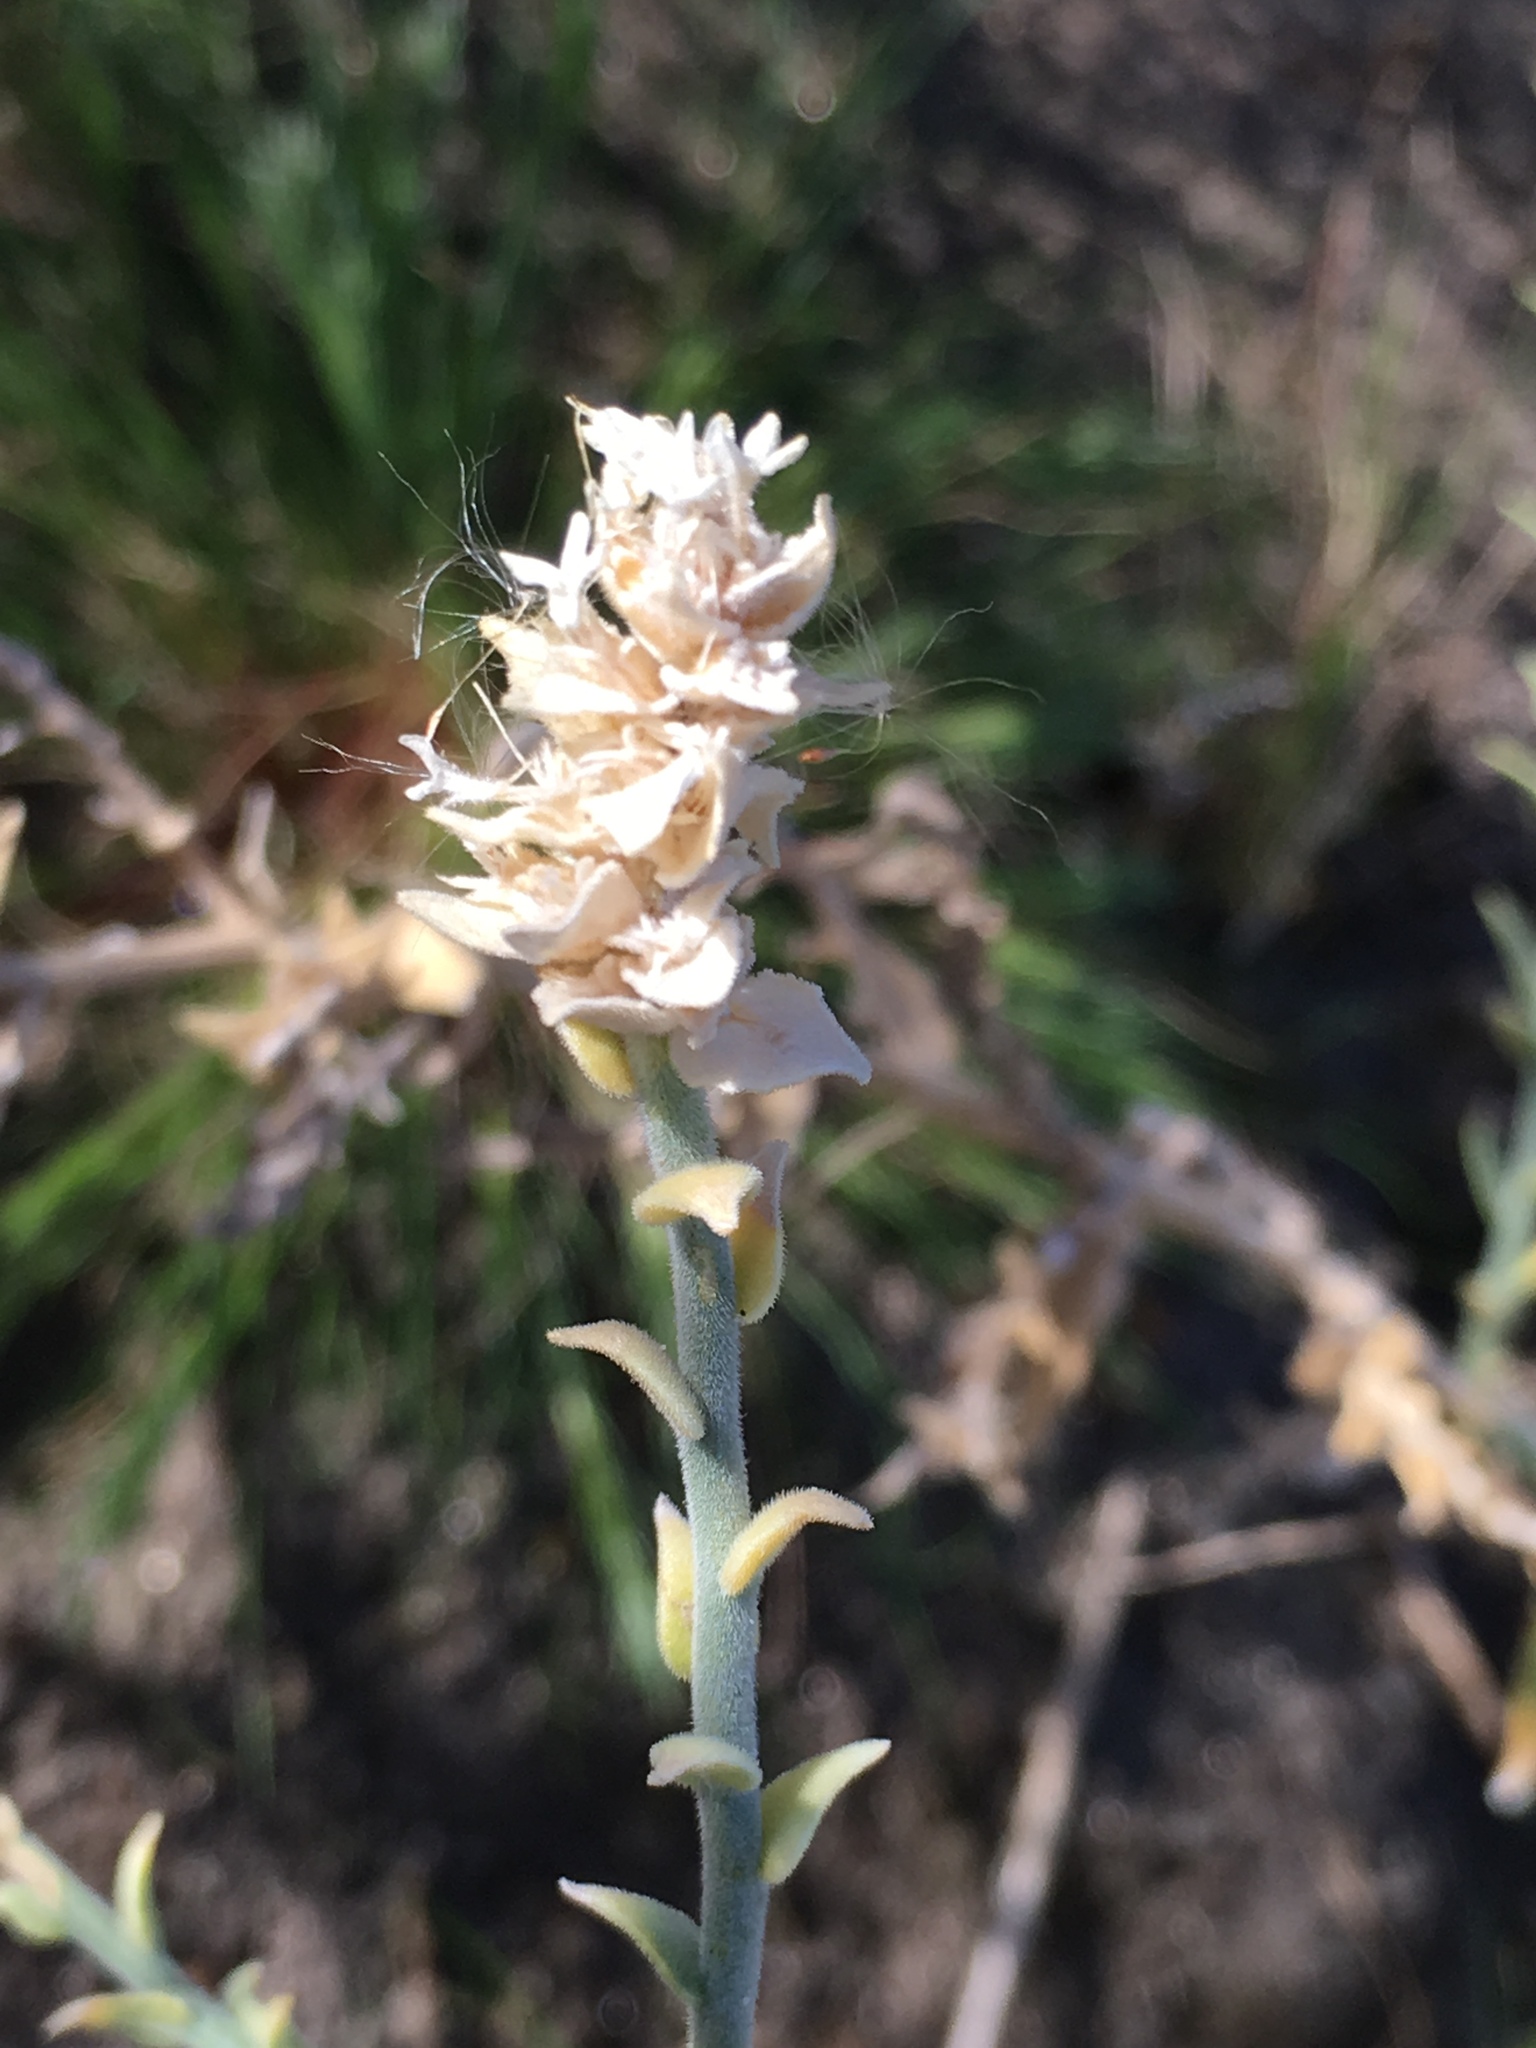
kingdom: Plantae
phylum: Tracheophyta
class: Magnoliopsida
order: Cornales
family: Loasaceae
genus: Petalonyx
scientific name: Petalonyx thurberi
